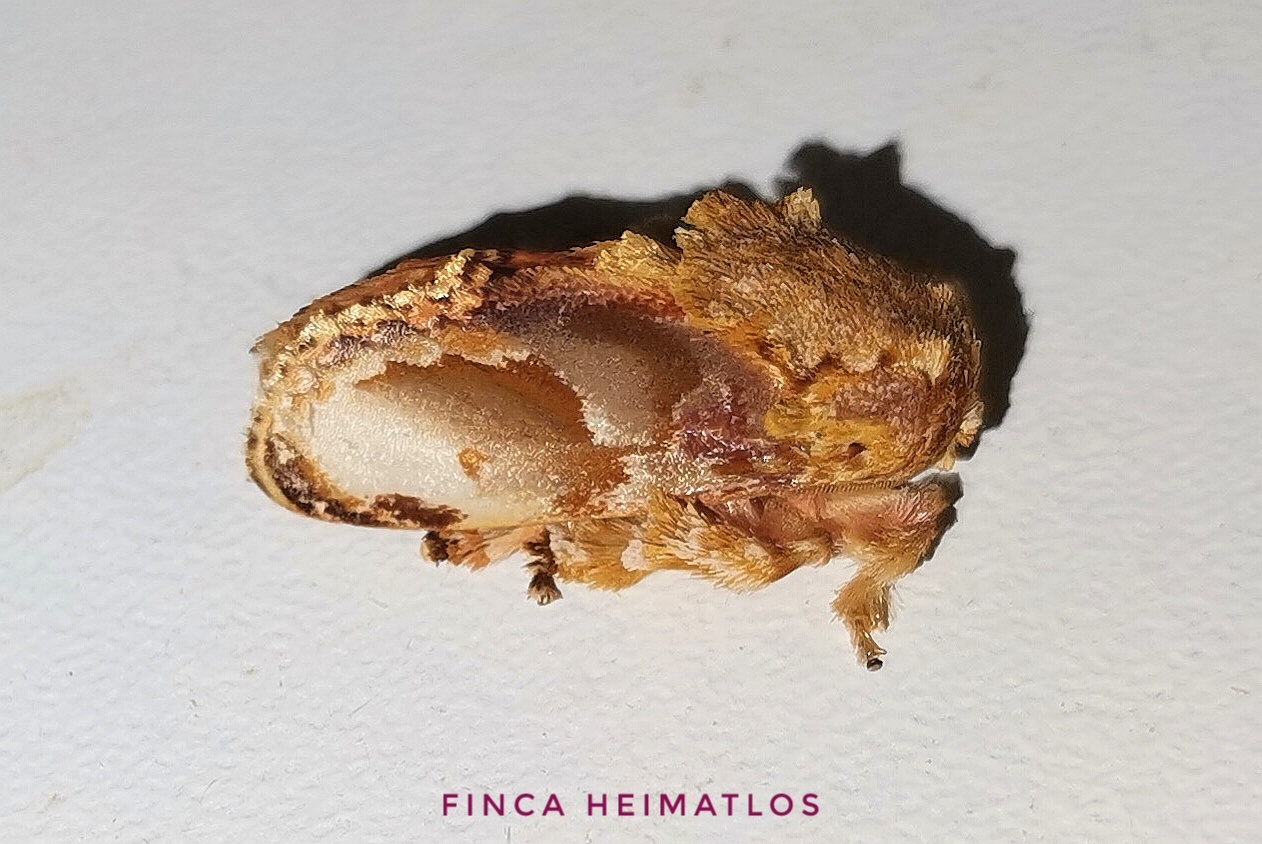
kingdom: Animalia
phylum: Arthropoda
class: Insecta
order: Lepidoptera
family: Limacodidae
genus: Euphobetron
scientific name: Euphobetron cypris
